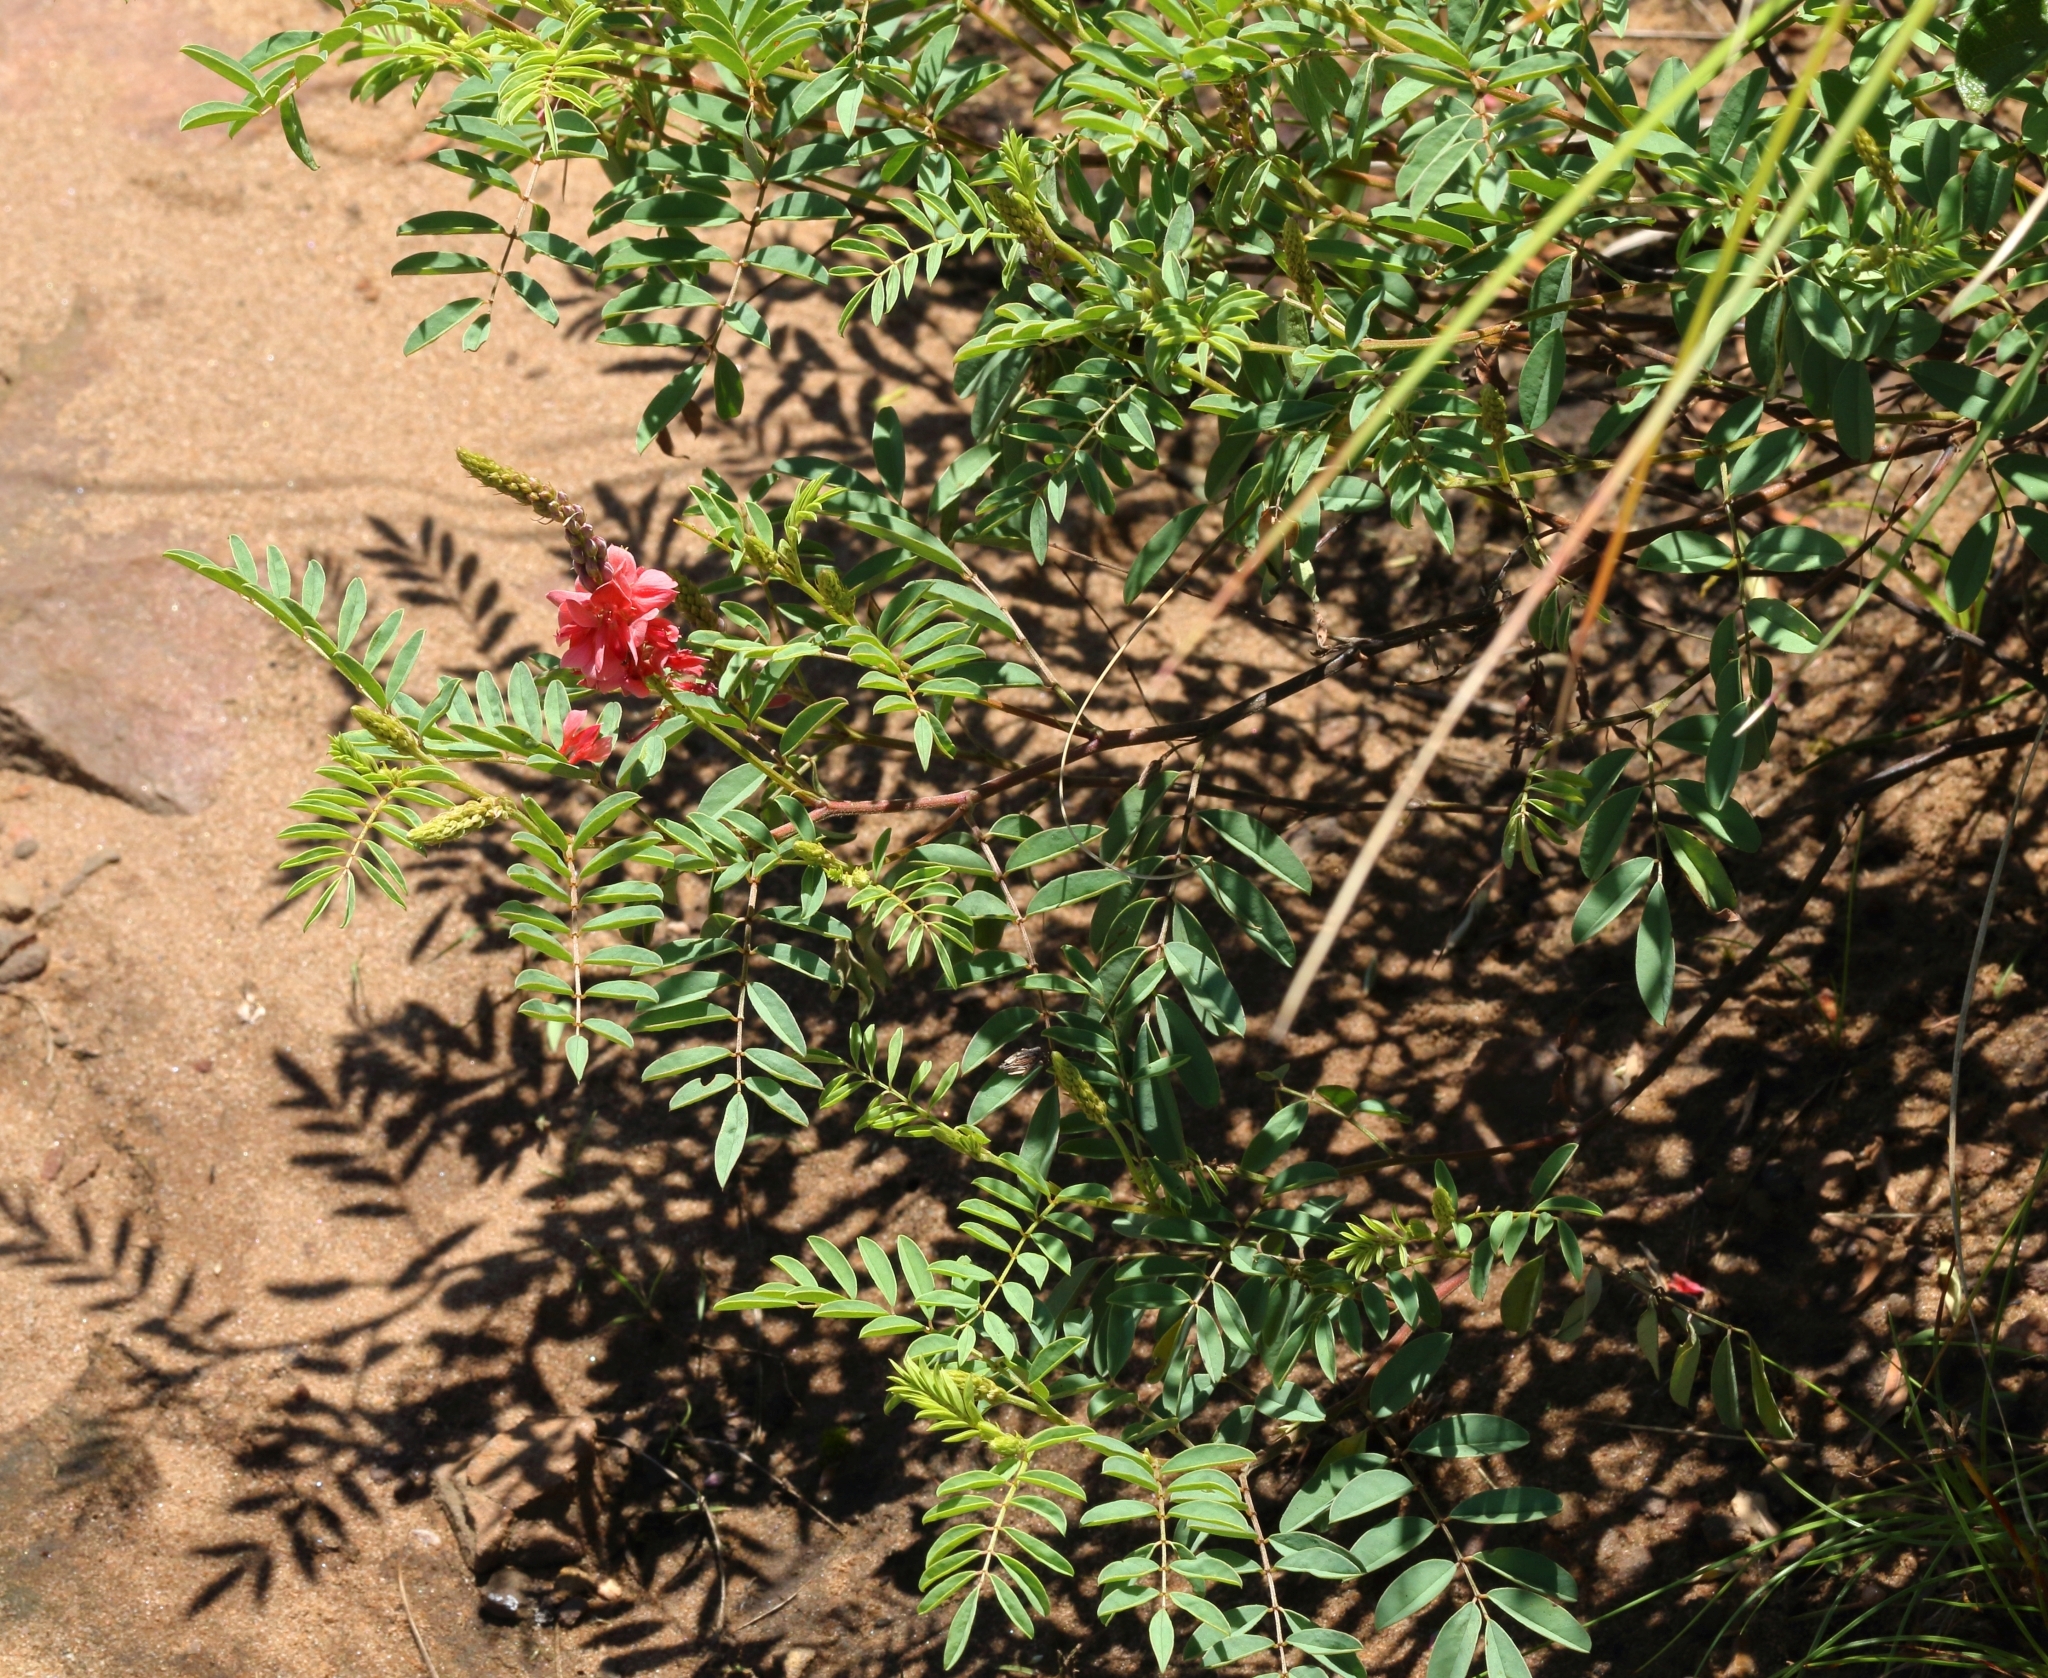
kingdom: Plantae
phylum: Tracheophyta
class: Magnoliopsida
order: Fabales
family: Fabaceae
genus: Indigofera
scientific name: Indigofera williamsonii
